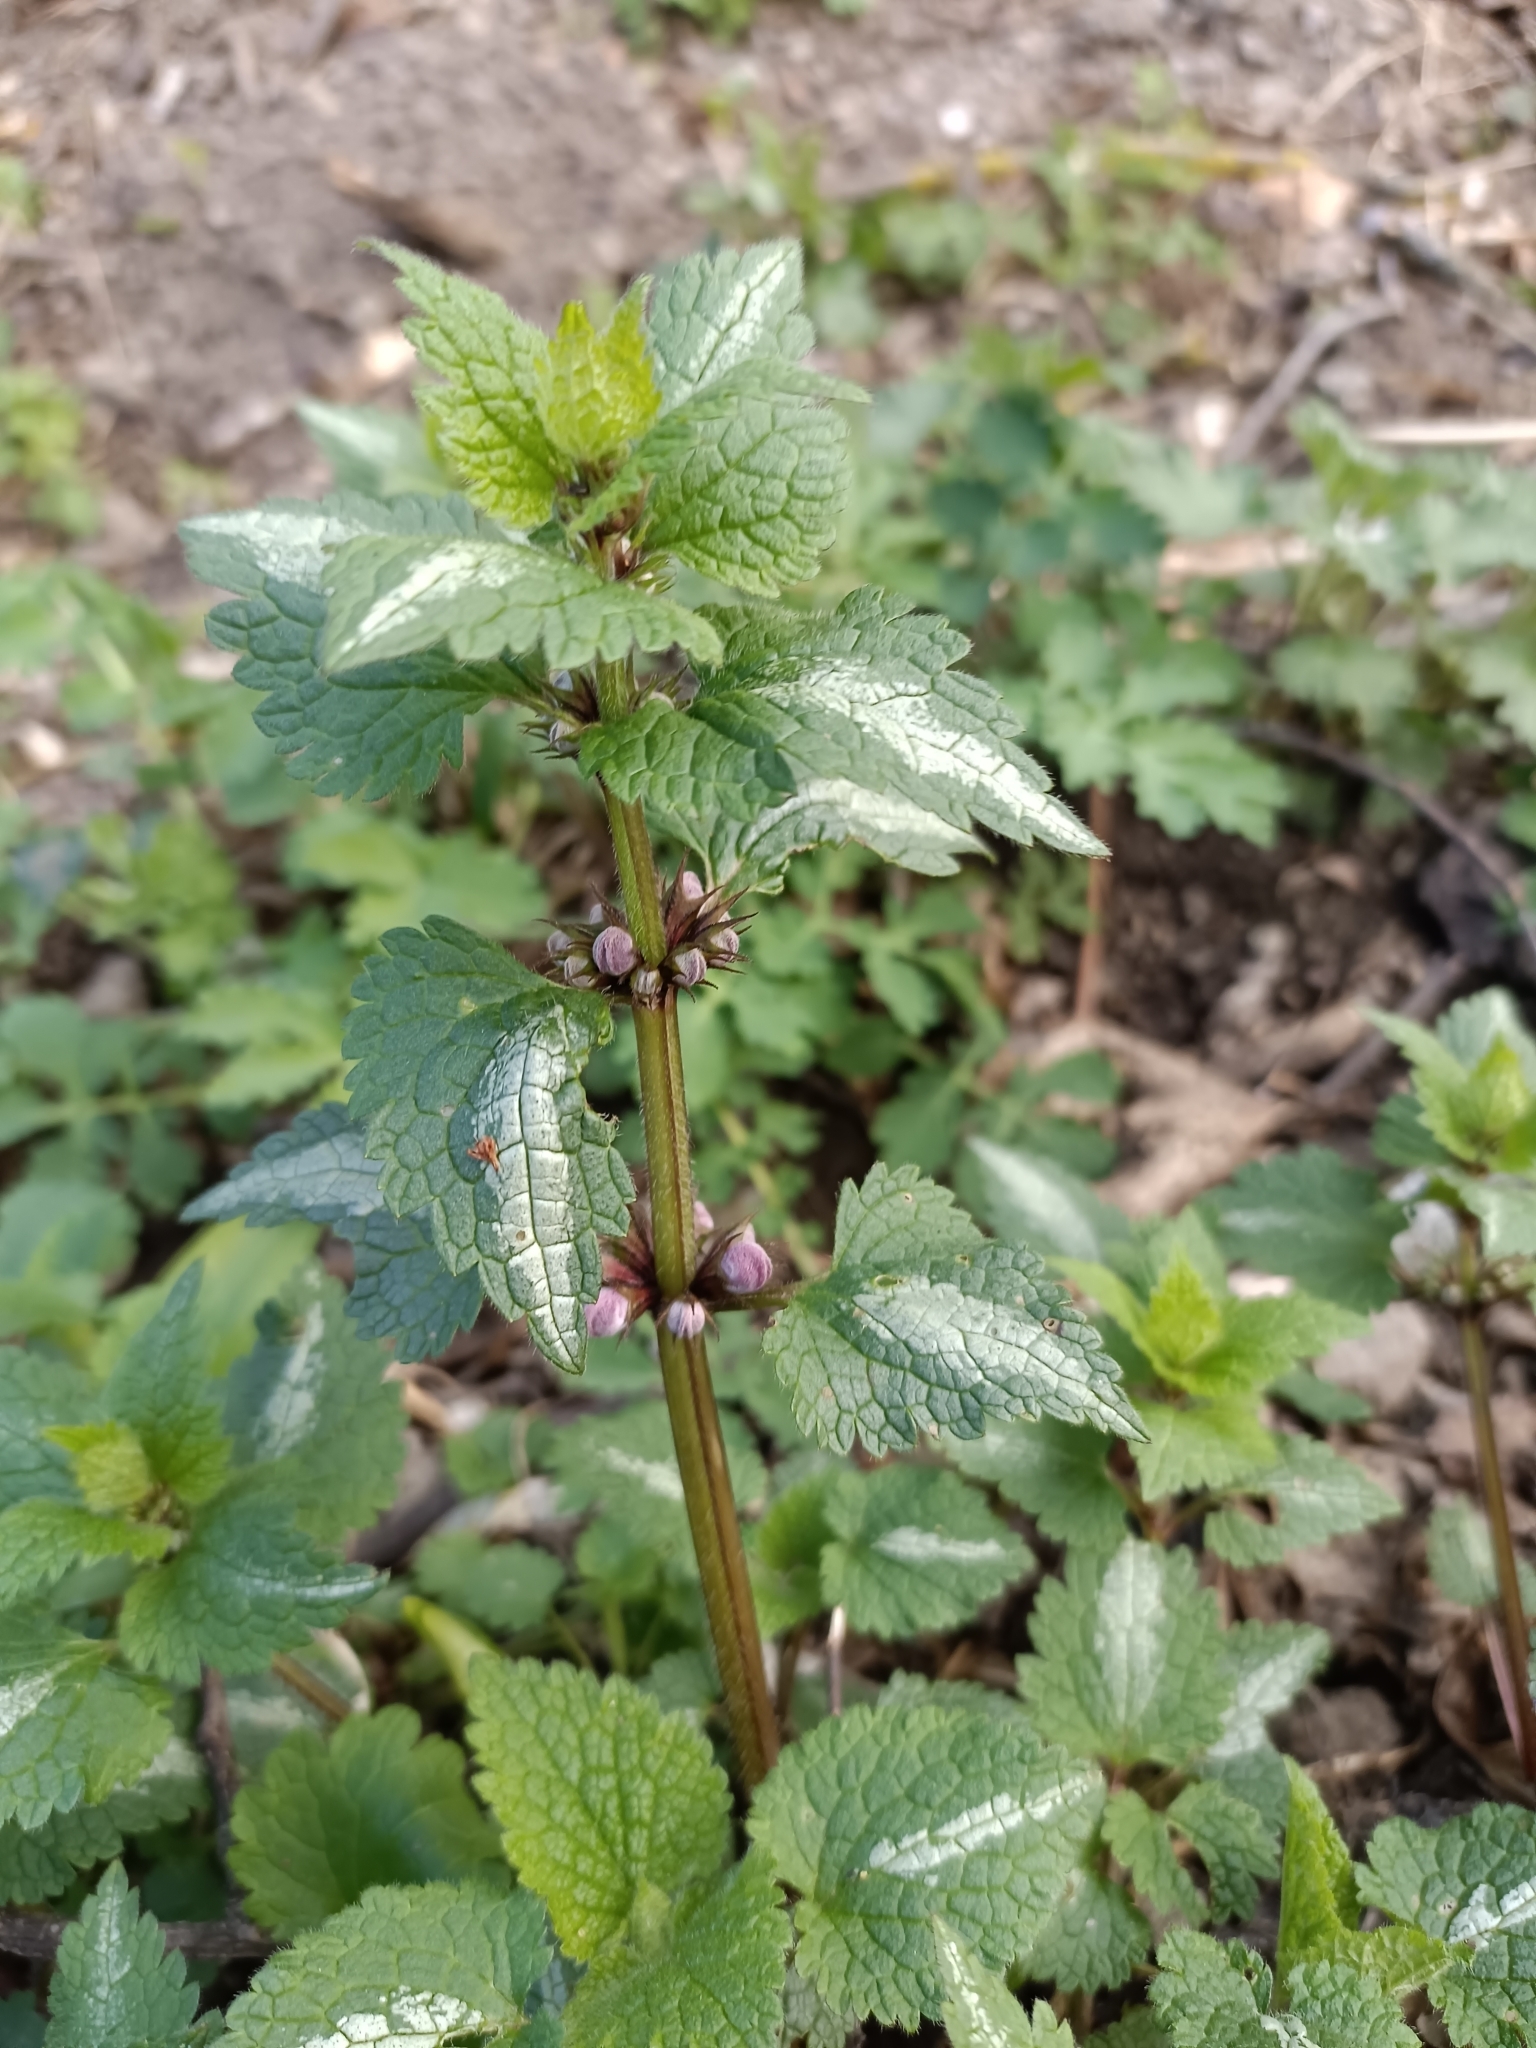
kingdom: Plantae
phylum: Tracheophyta
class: Magnoliopsida
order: Lamiales
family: Lamiaceae
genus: Lamium
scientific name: Lamium maculatum
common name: Spotted dead-nettle
